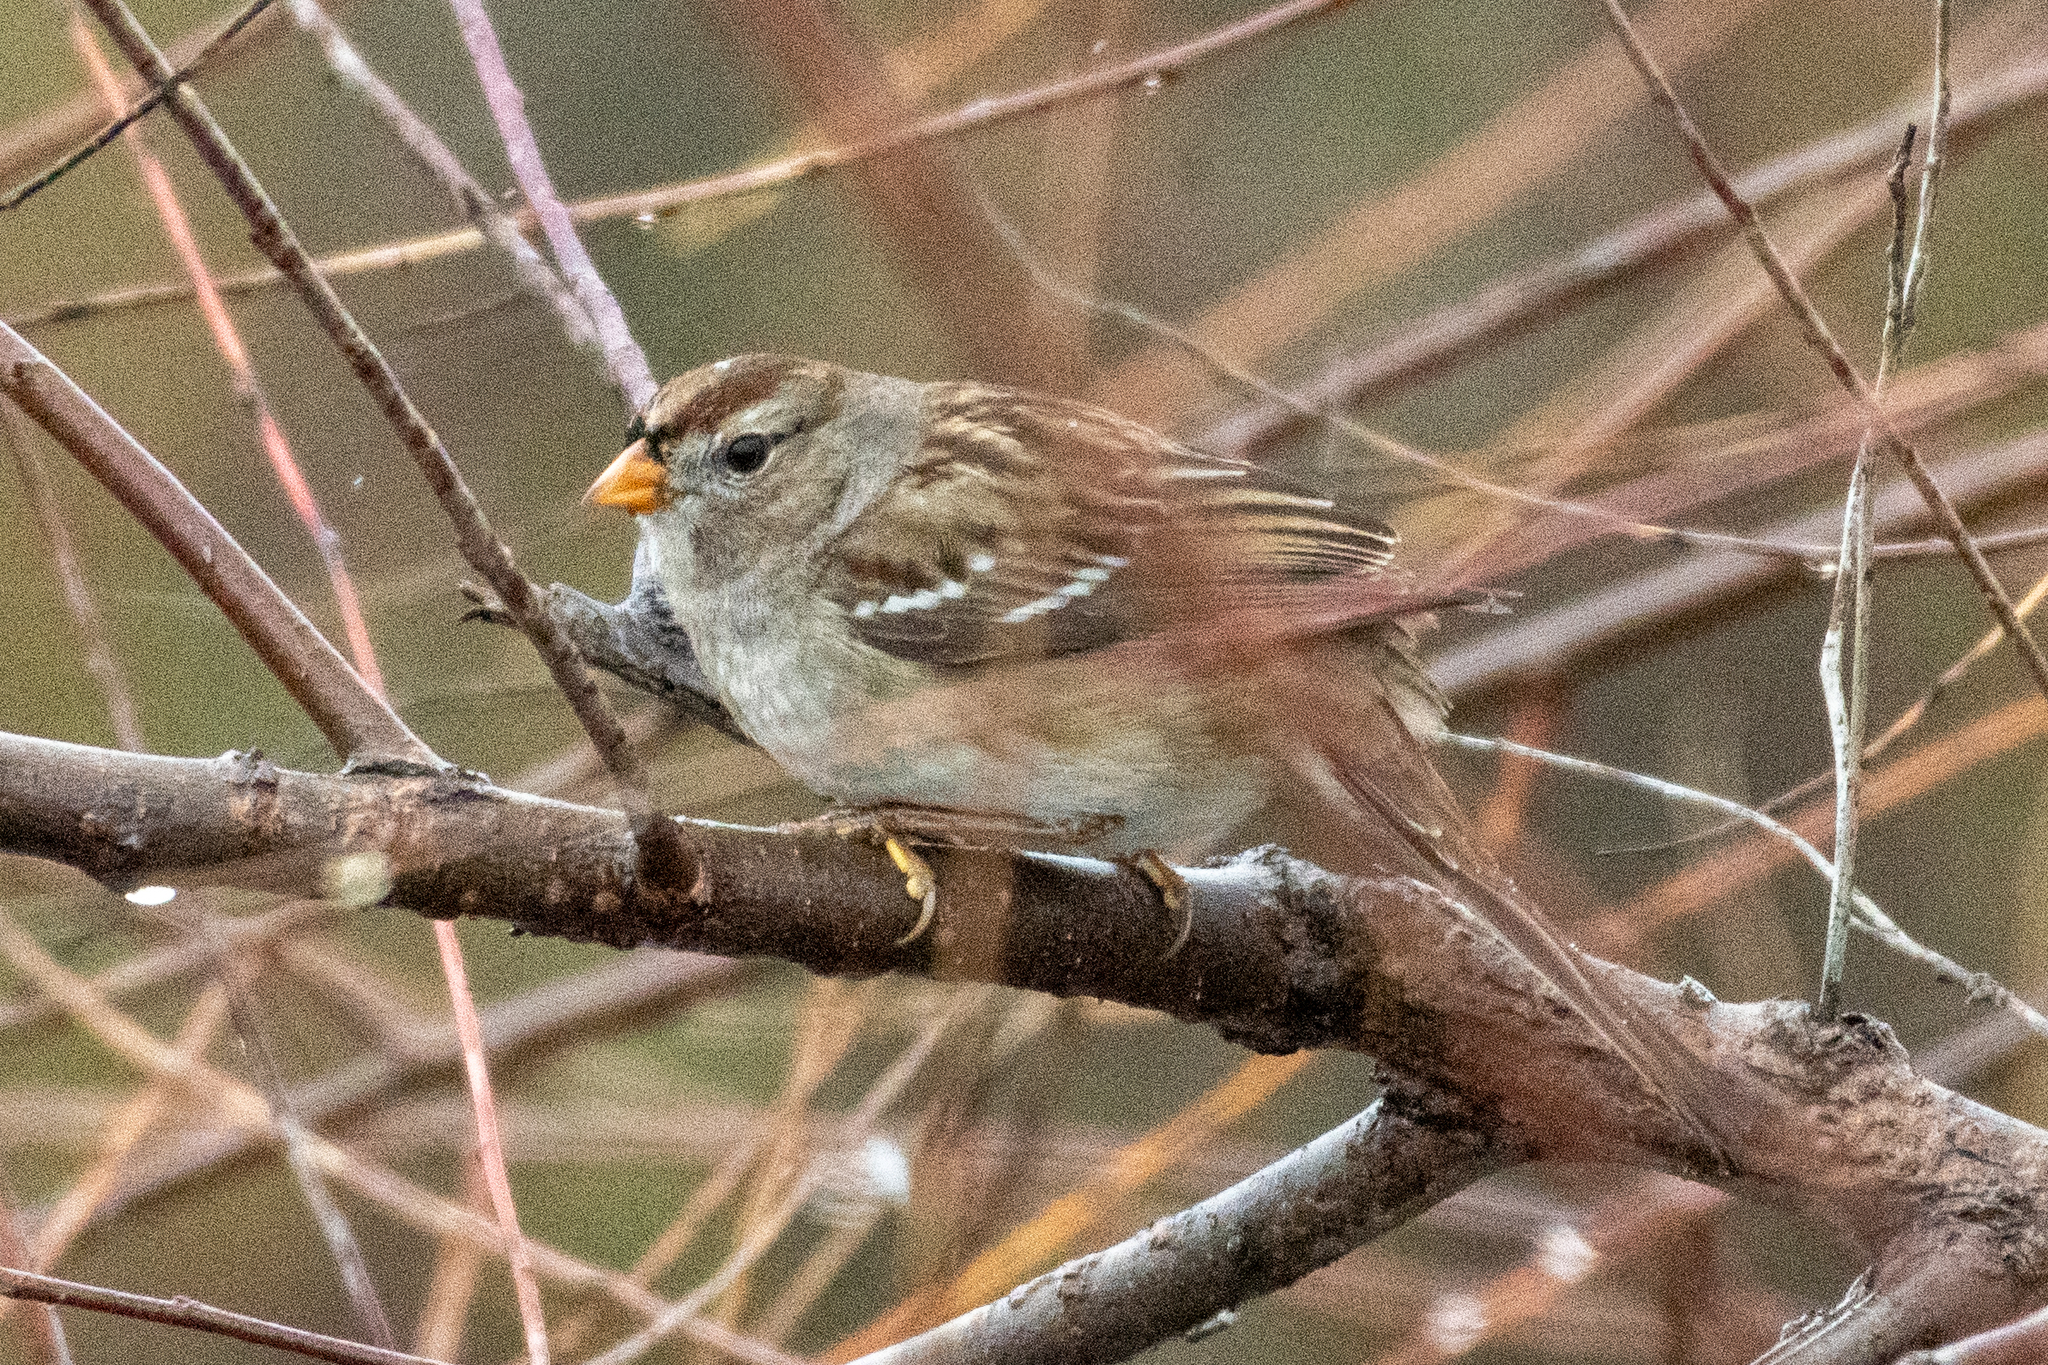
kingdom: Animalia
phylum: Chordata
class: Aves
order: Passeriformes
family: Passerellidae
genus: Zonotrichia
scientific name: Zonotrichia leucophrys
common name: White-crowned sparrow
